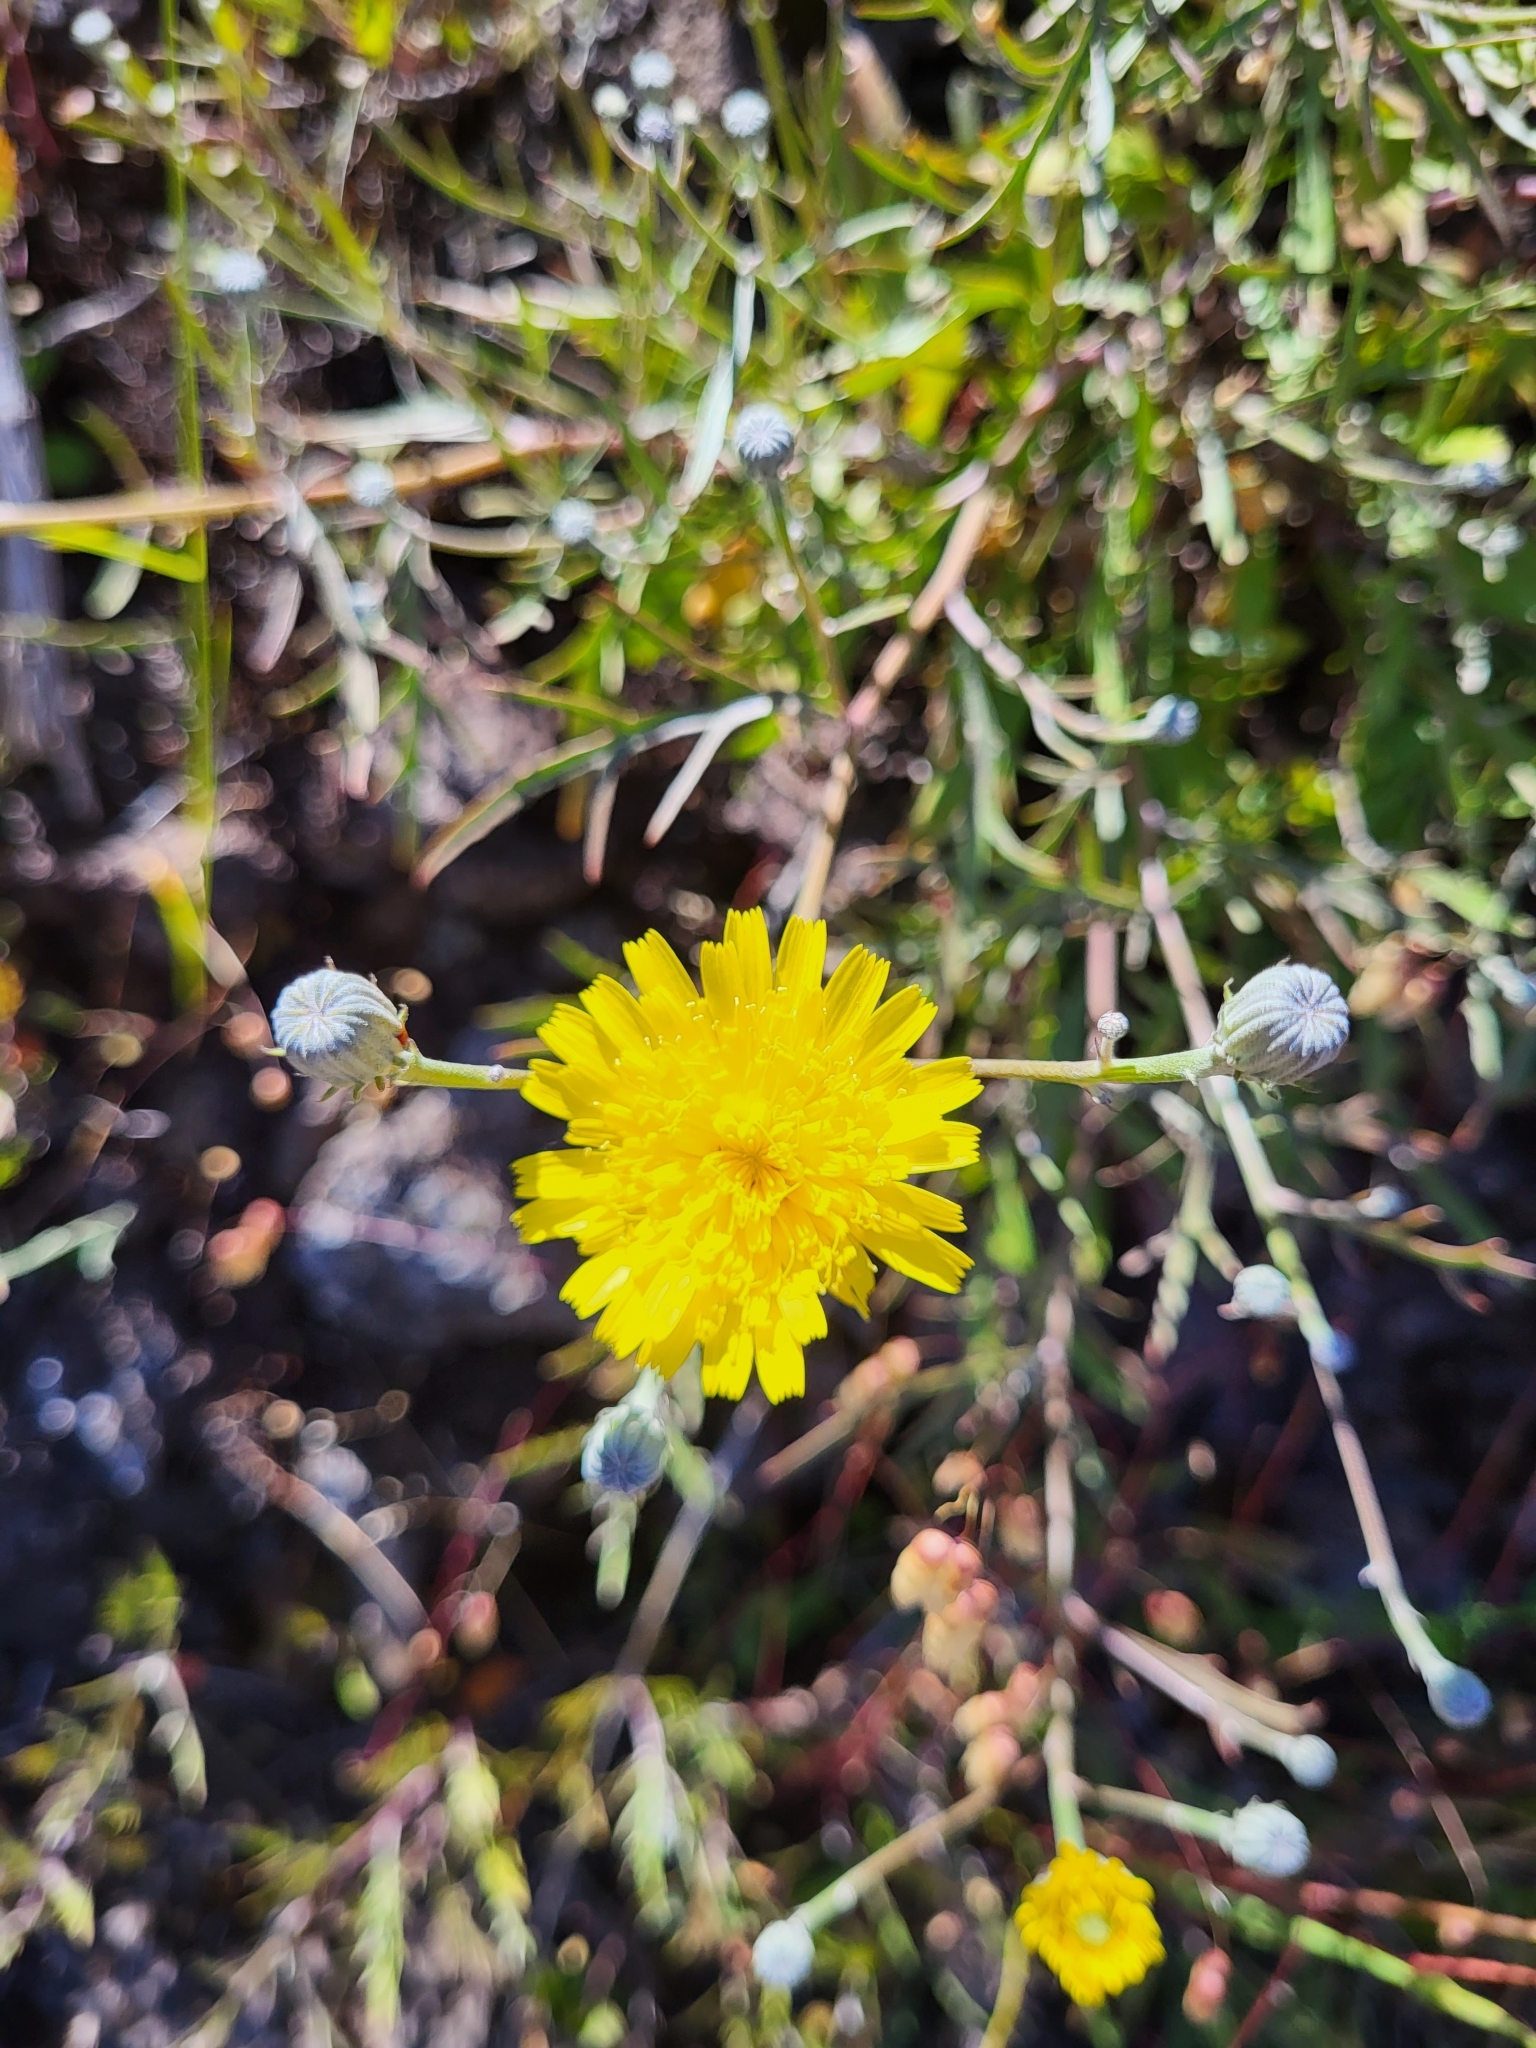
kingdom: Plantae
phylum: Tracheophyta
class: Magnoliopsida
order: Asterales
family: Asteraceae
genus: Tolpis
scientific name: Tolpis succulenta
